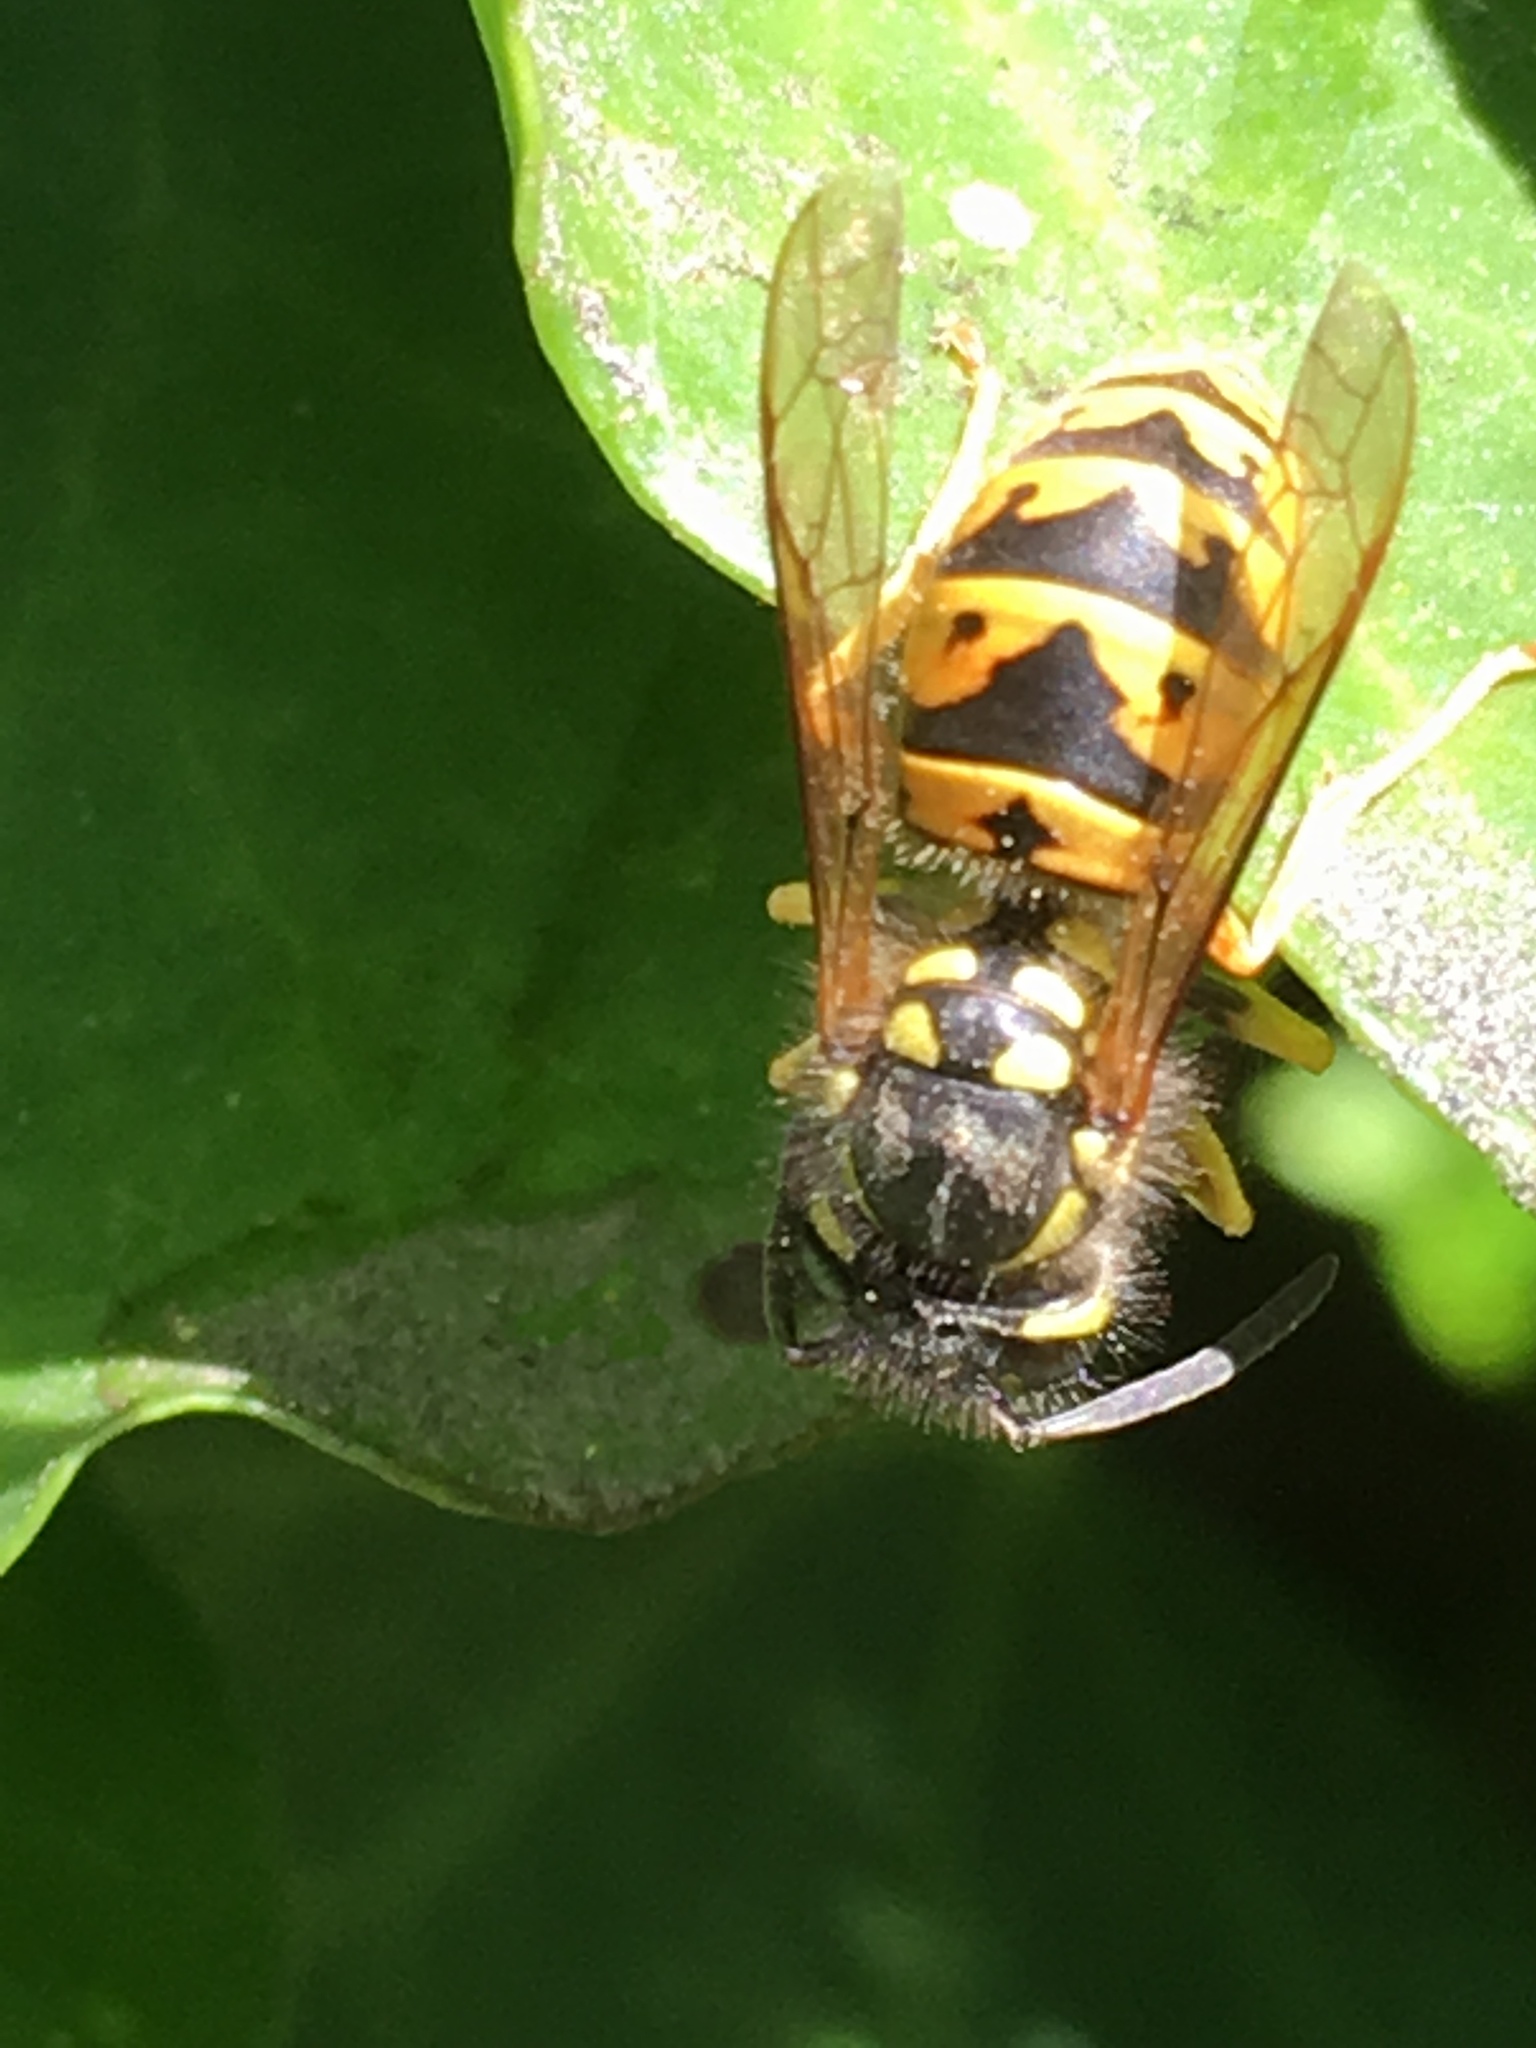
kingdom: Animalia
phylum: Arthropoda
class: Insecta
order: Hymenoptera
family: Vespidae
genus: Vespula
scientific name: Vespula germanica
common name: German wasp
